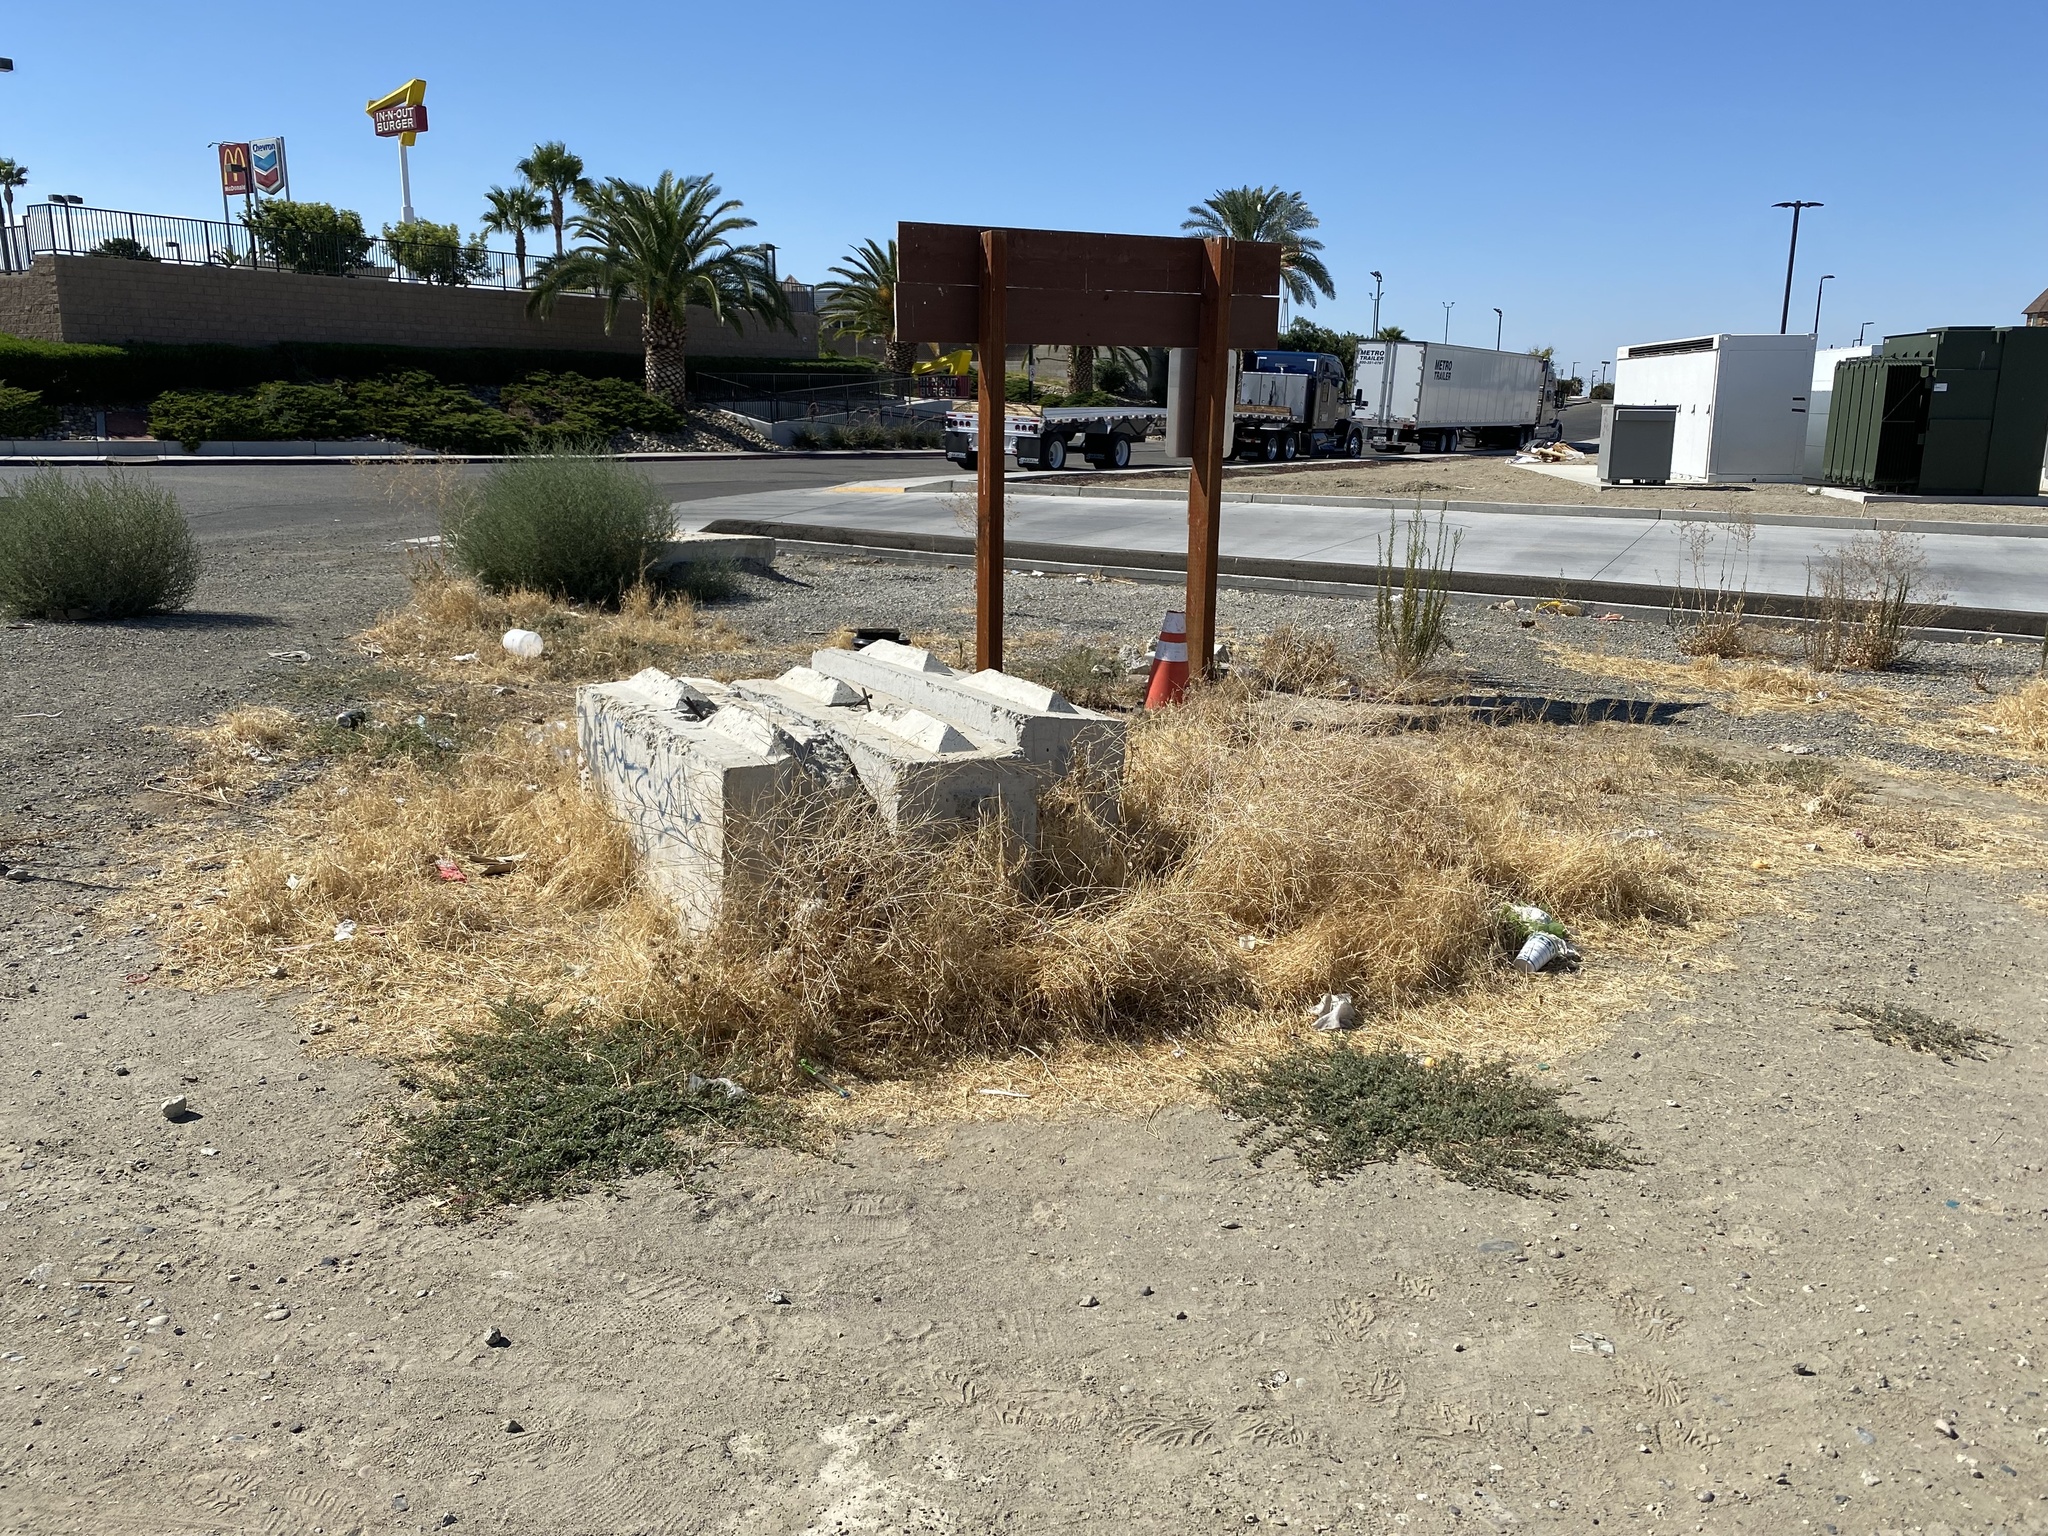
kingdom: Plantae
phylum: Tracheophyta
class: Magnoliopsida
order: Zygophyllales
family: Zygophyllaceae
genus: Tribulus
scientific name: Tribulus terrestris
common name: Puncturevine
